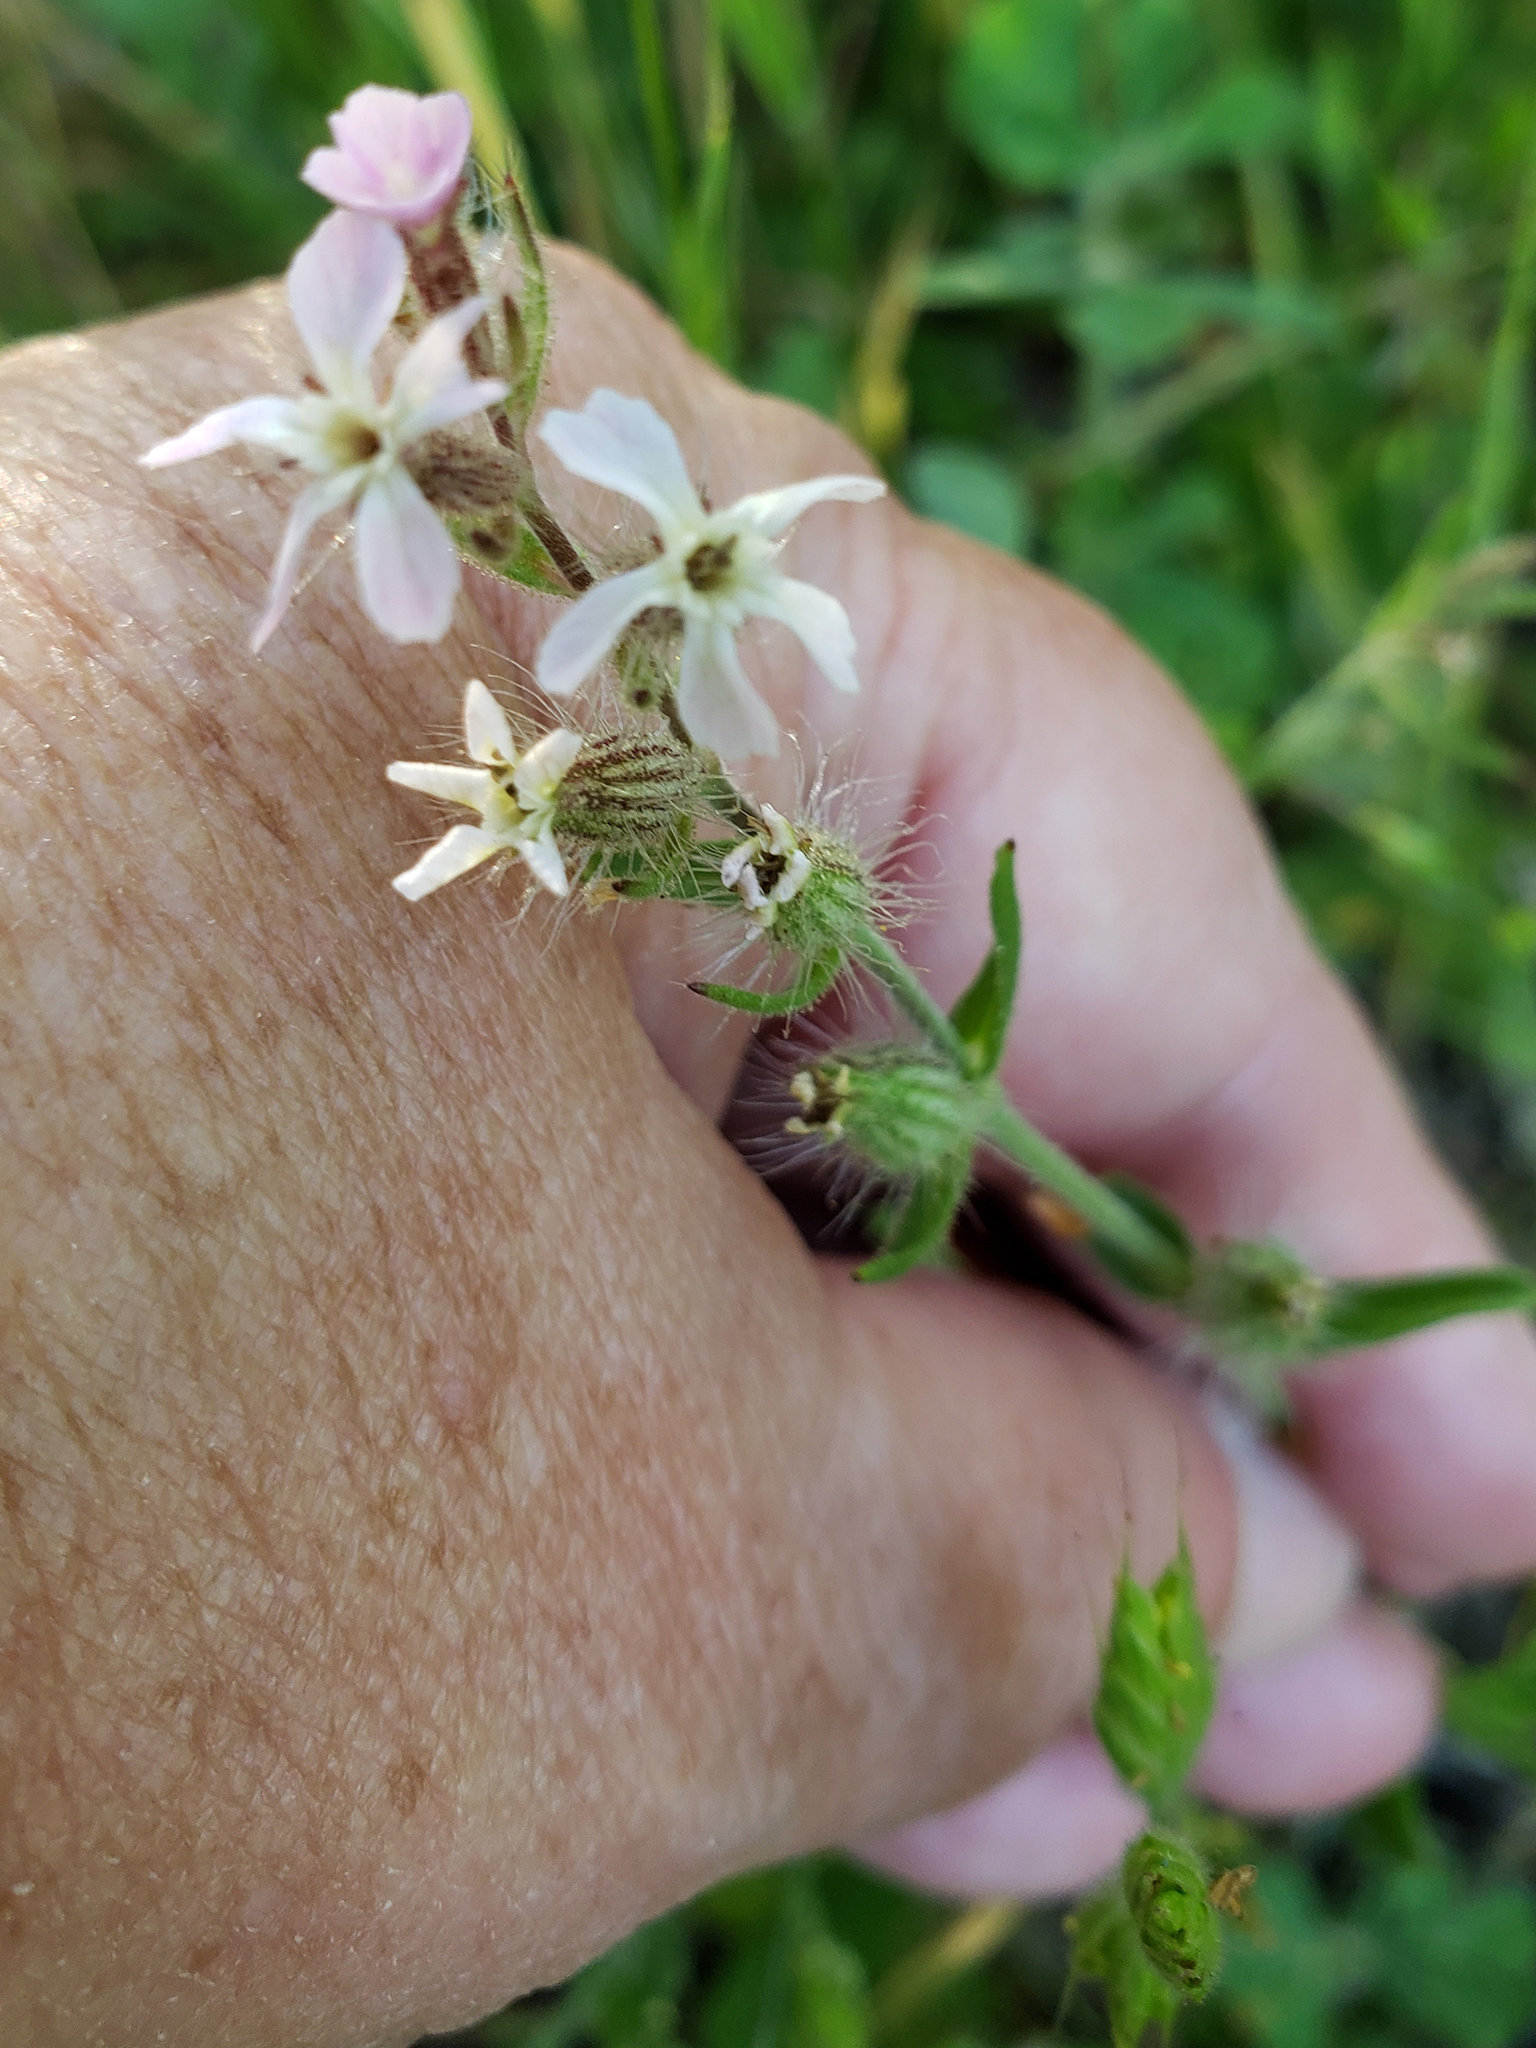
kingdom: Plantae
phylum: Tracheophyta
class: Magnoliopsida
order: Caryophyllales
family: Caryophyllaceae
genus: Silene
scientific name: Silene gallica
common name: Small-flowered catchfly
